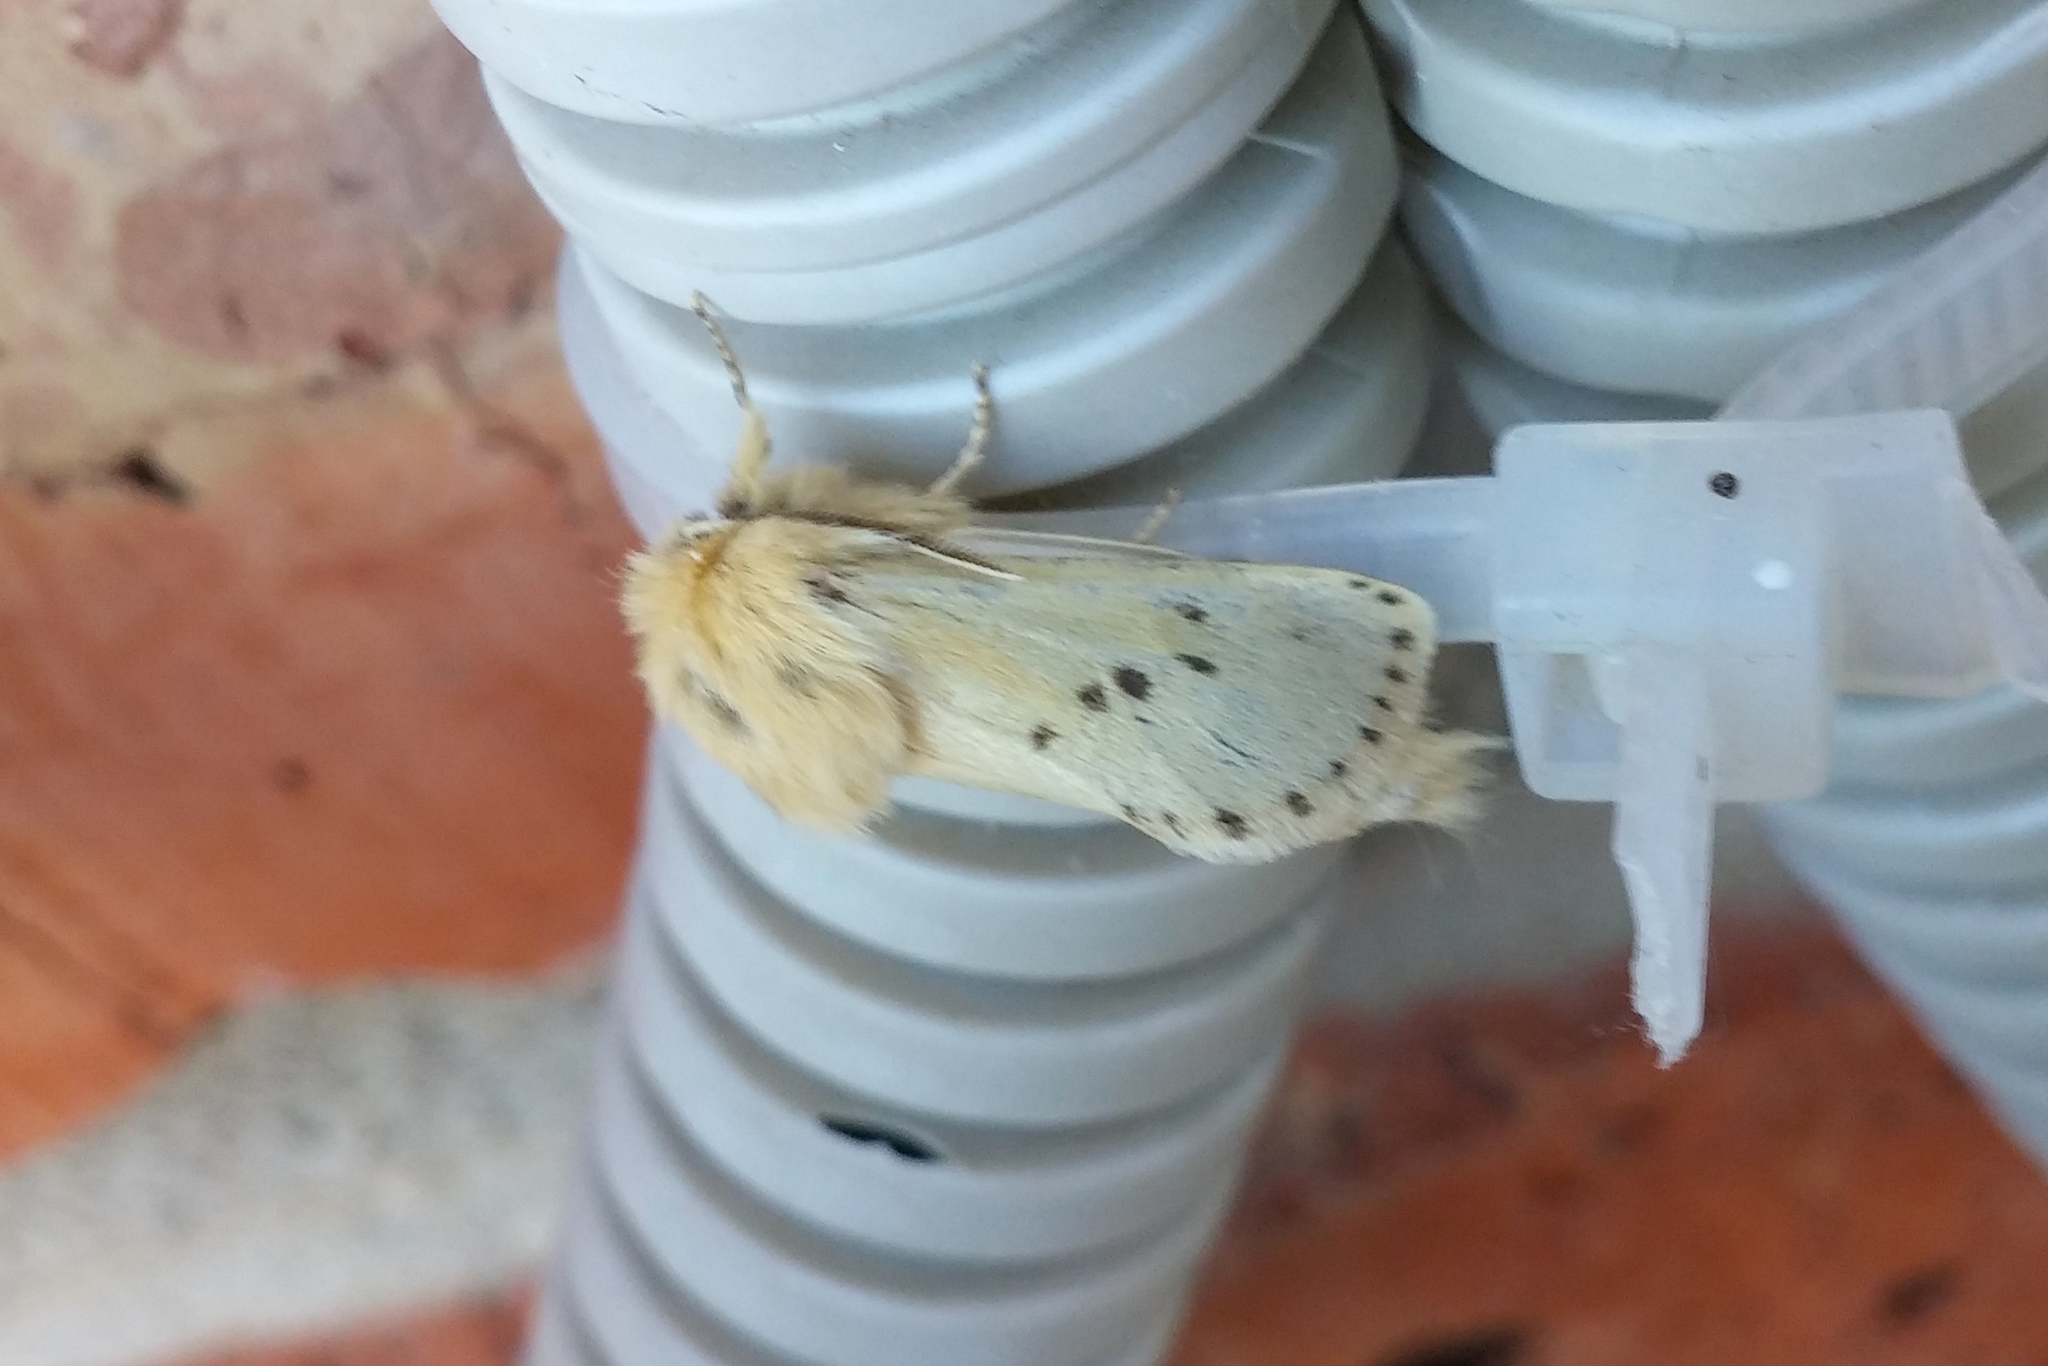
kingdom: Animalia
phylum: Arthropoda
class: Insecta
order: Lepidoptera
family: Cossidae
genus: Dyspessa
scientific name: Dyspessa salicicola
